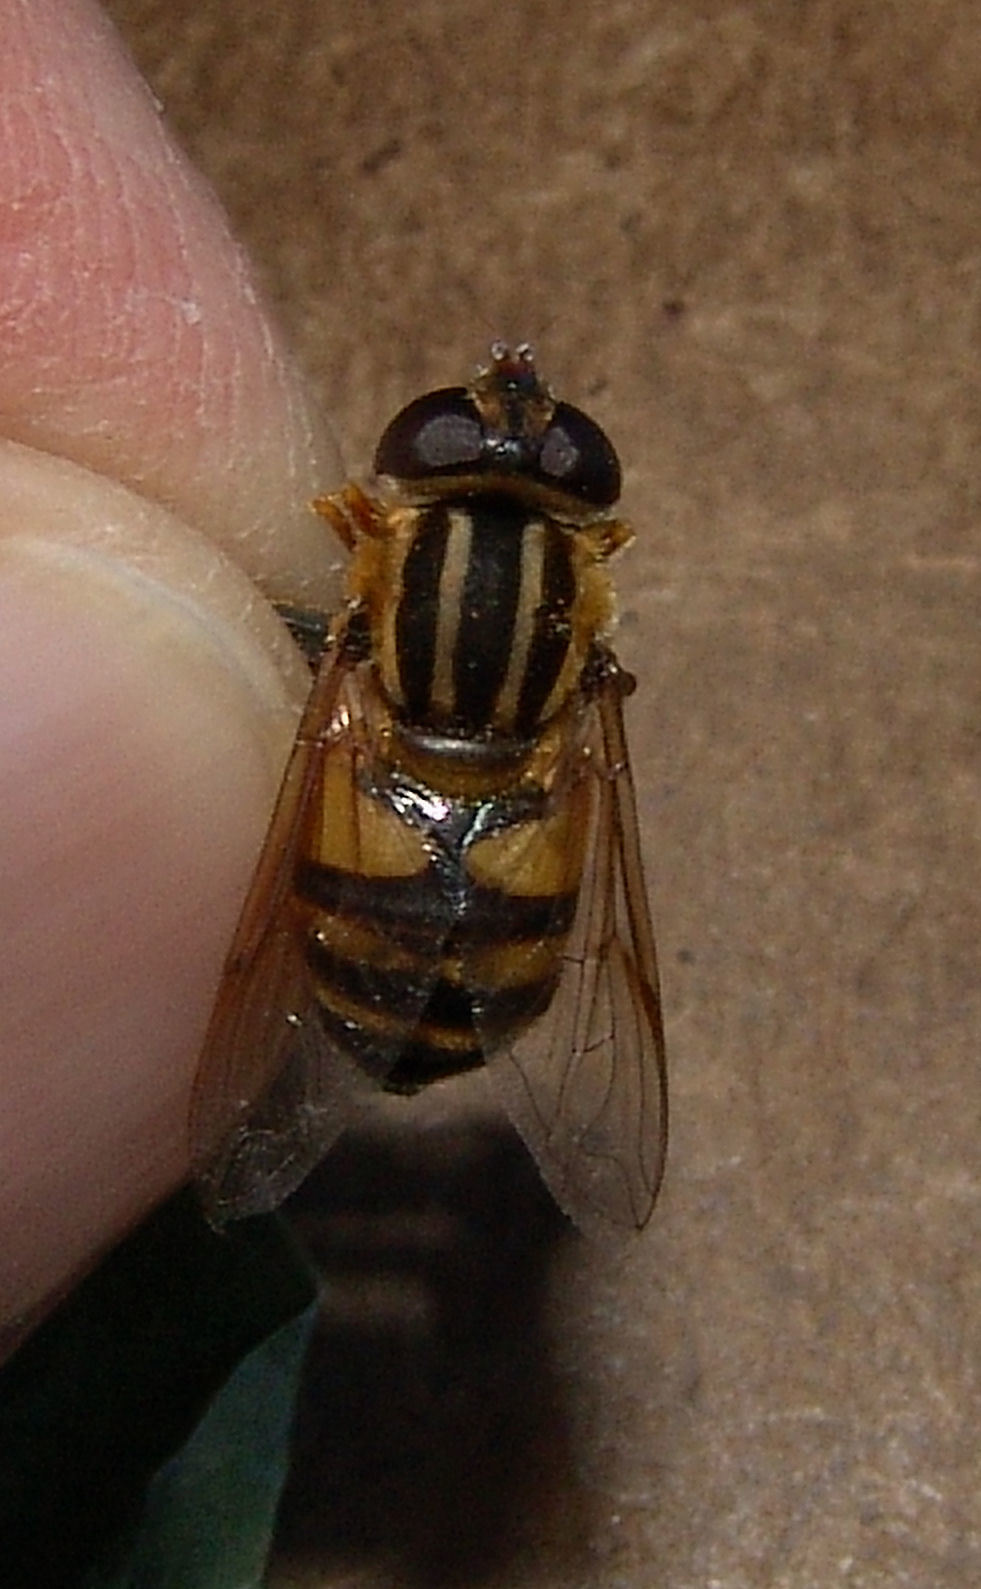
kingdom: Animalia
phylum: Arthropoda
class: Insecta
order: Diptera
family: Syrphidae
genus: Helophilus
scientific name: Helophilus fasciatus
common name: Narrow-headed marsh fly
